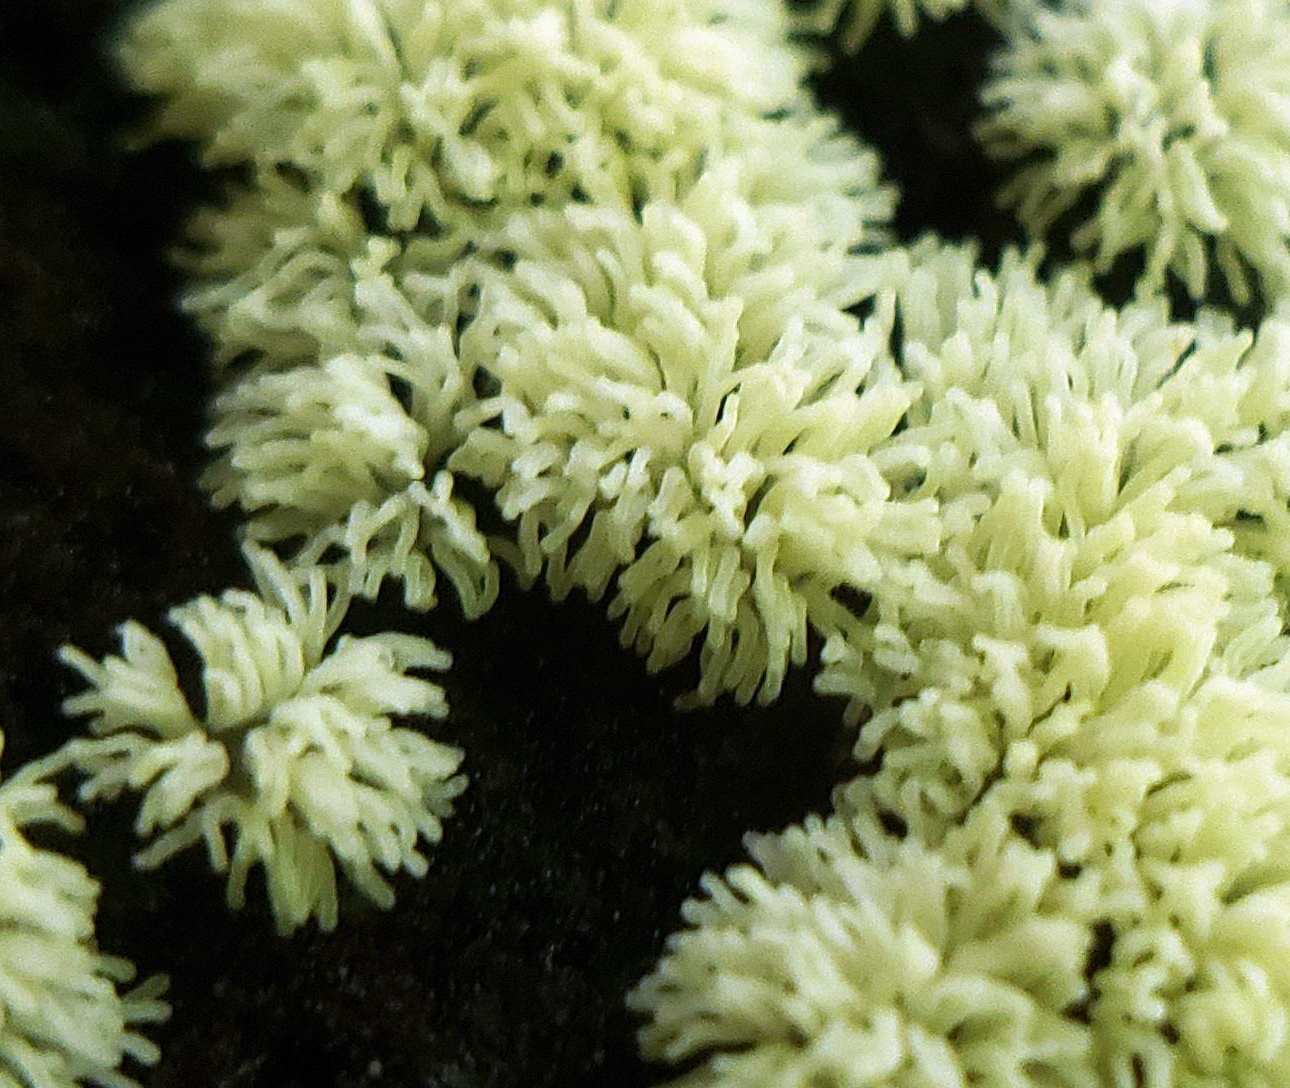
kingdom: Protozoa
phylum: Mycetozoa
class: Protosteliomycetes
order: Ceratiomyxales
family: Ceratiomyxaceae
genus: Ceratiomyxa
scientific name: Ceratiomyxa fruticulosa
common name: Honeycomb coral slime mold
